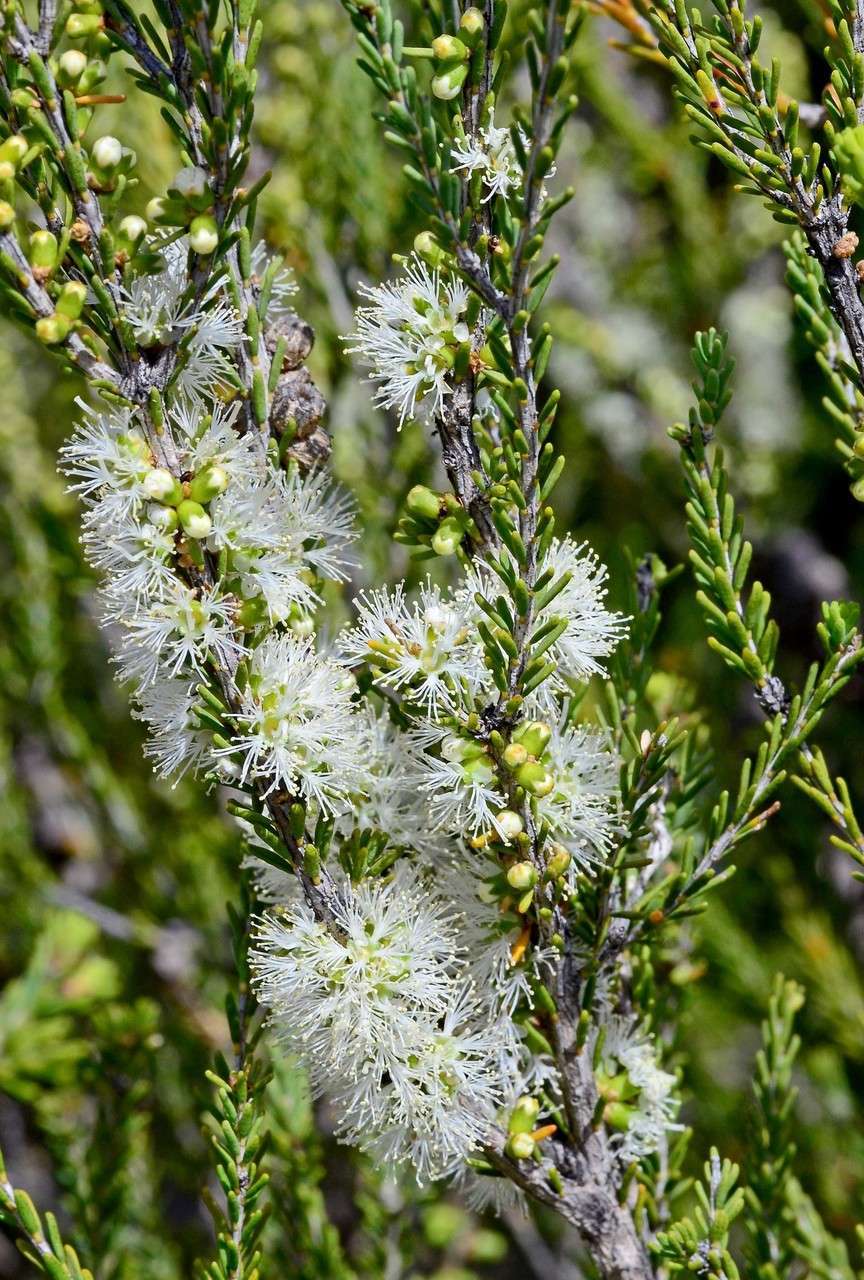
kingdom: Plantae
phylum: Tracheophyta
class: Magnoliopsida
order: Myrtales
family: Myrtaceae
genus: Melaleuca
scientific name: Melaleuca brevifolia
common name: Mallee honey myrtle
